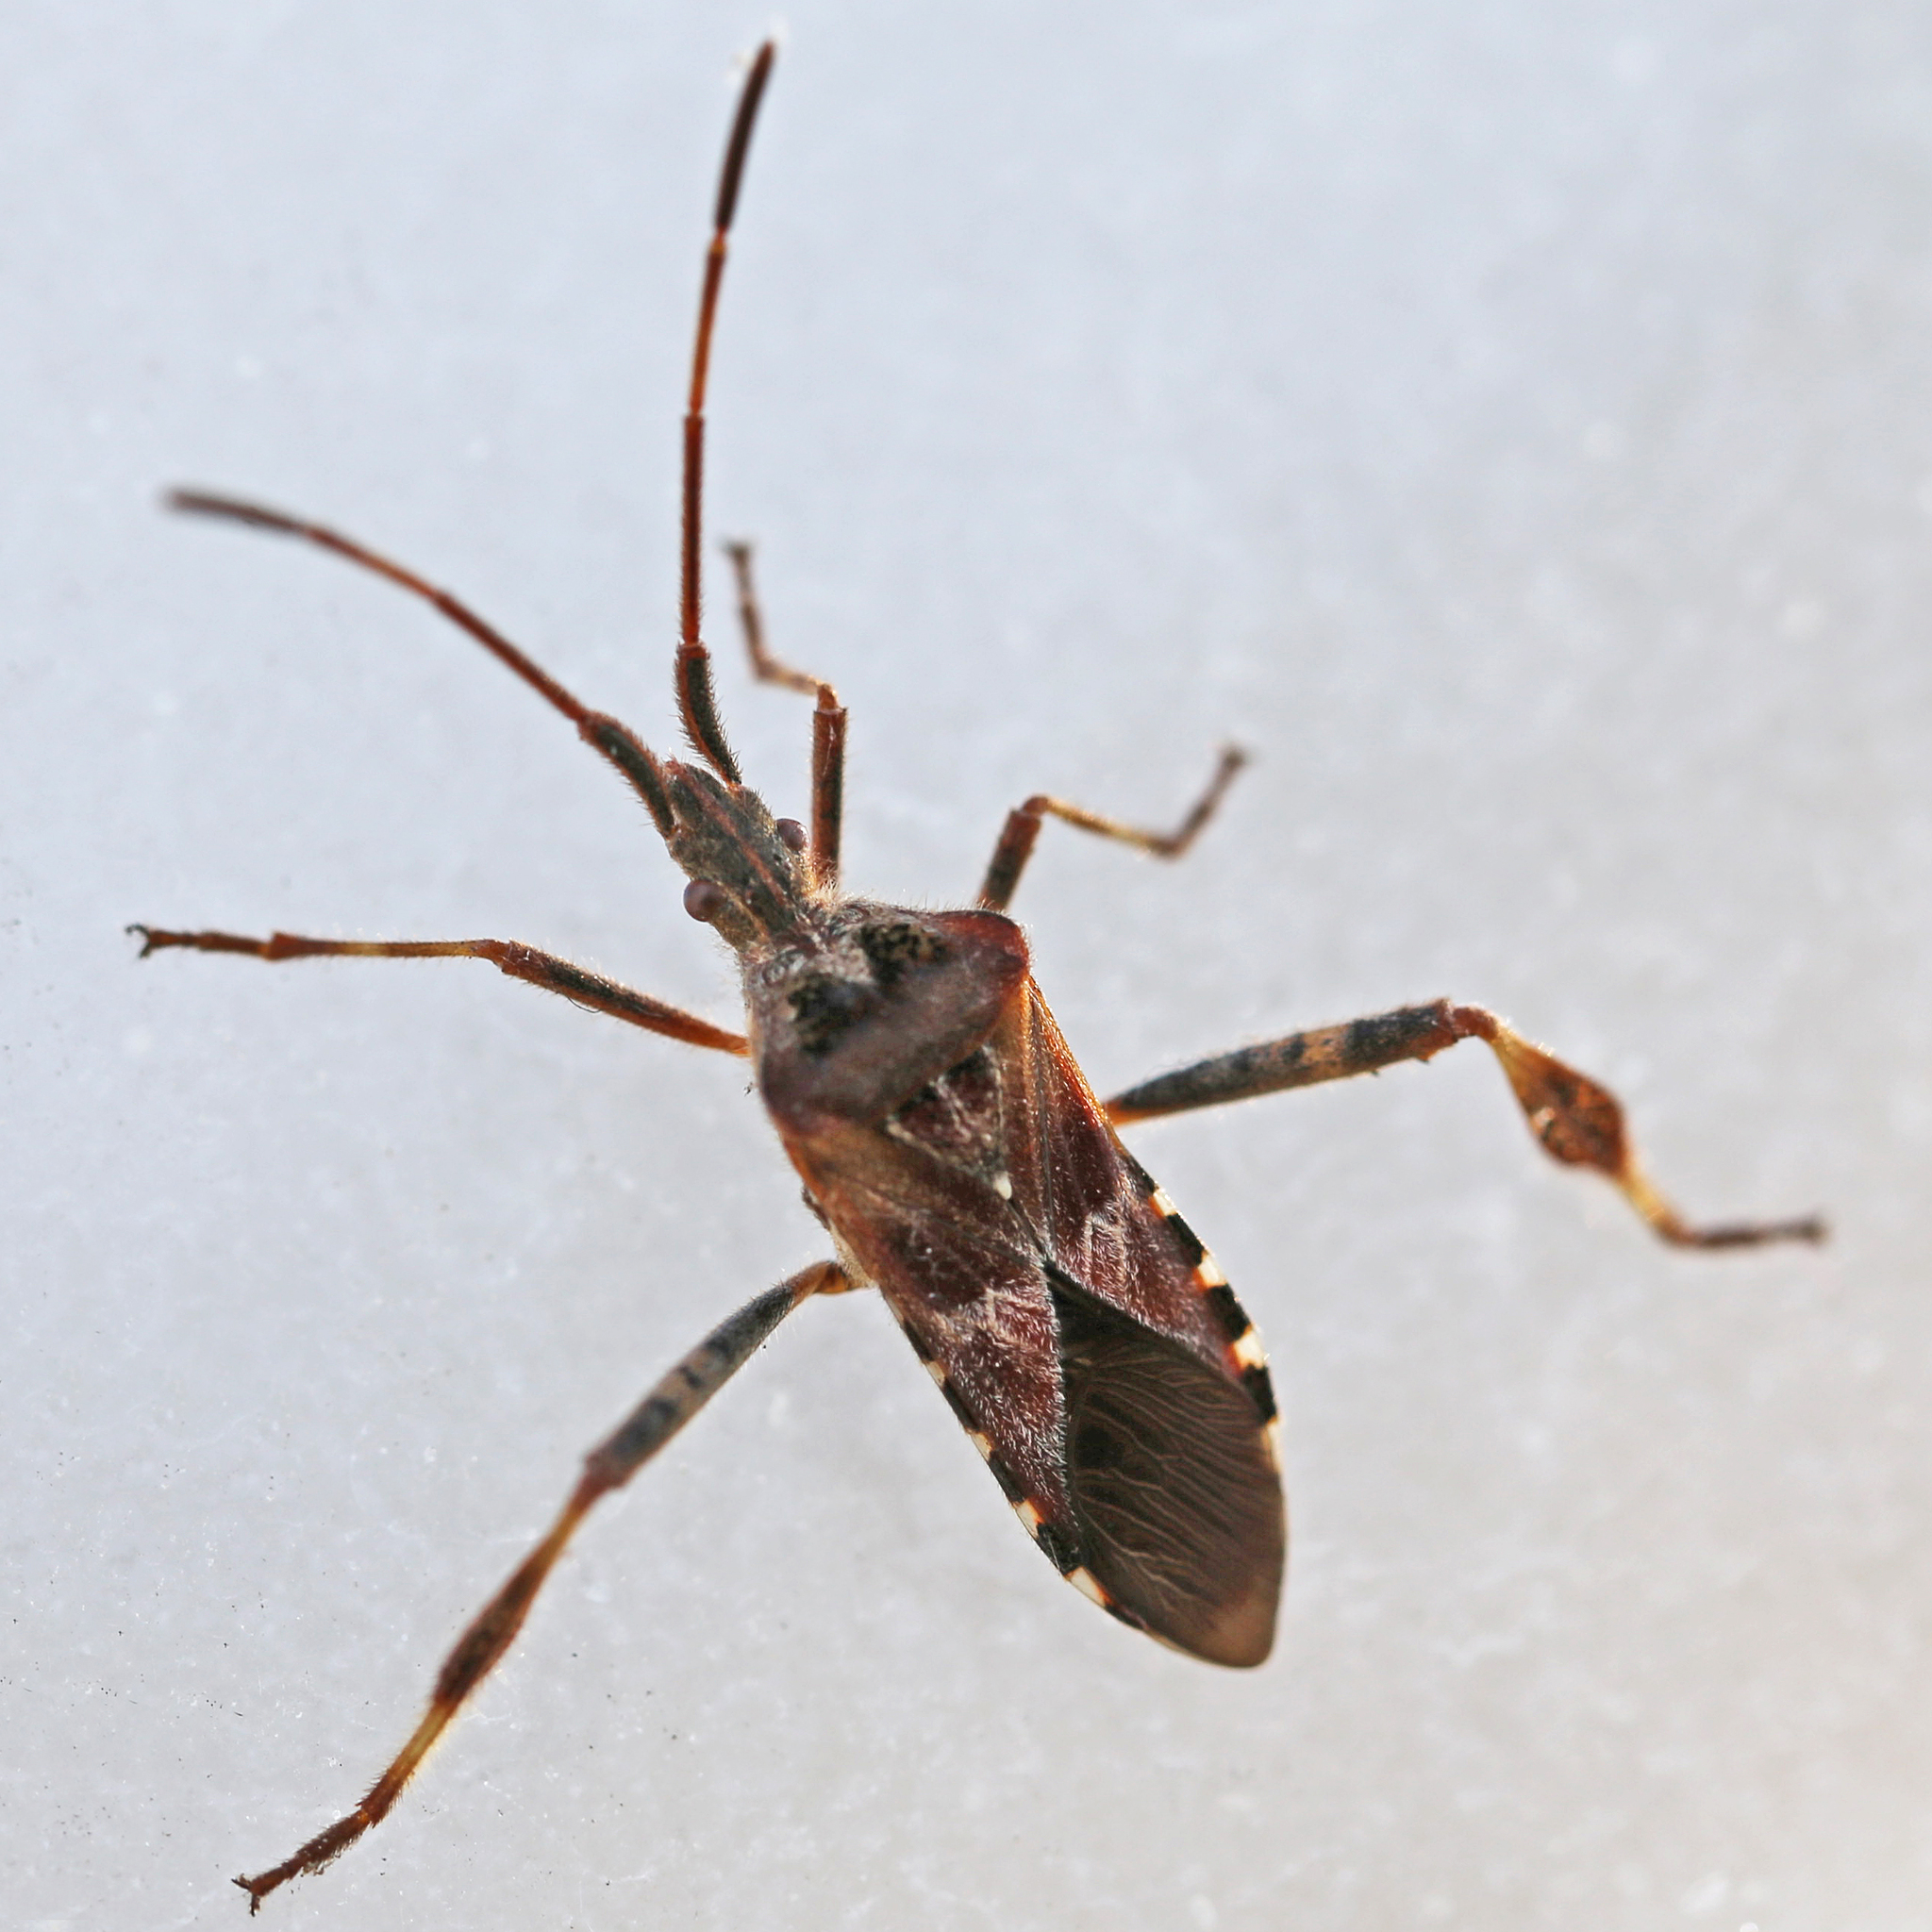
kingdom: Animalia
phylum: Arthropoda
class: Insecta
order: Hemiptera
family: Coreidae
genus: Leptoglossus
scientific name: Leptoglossus occidentalis
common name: Western conifer-seed bug
